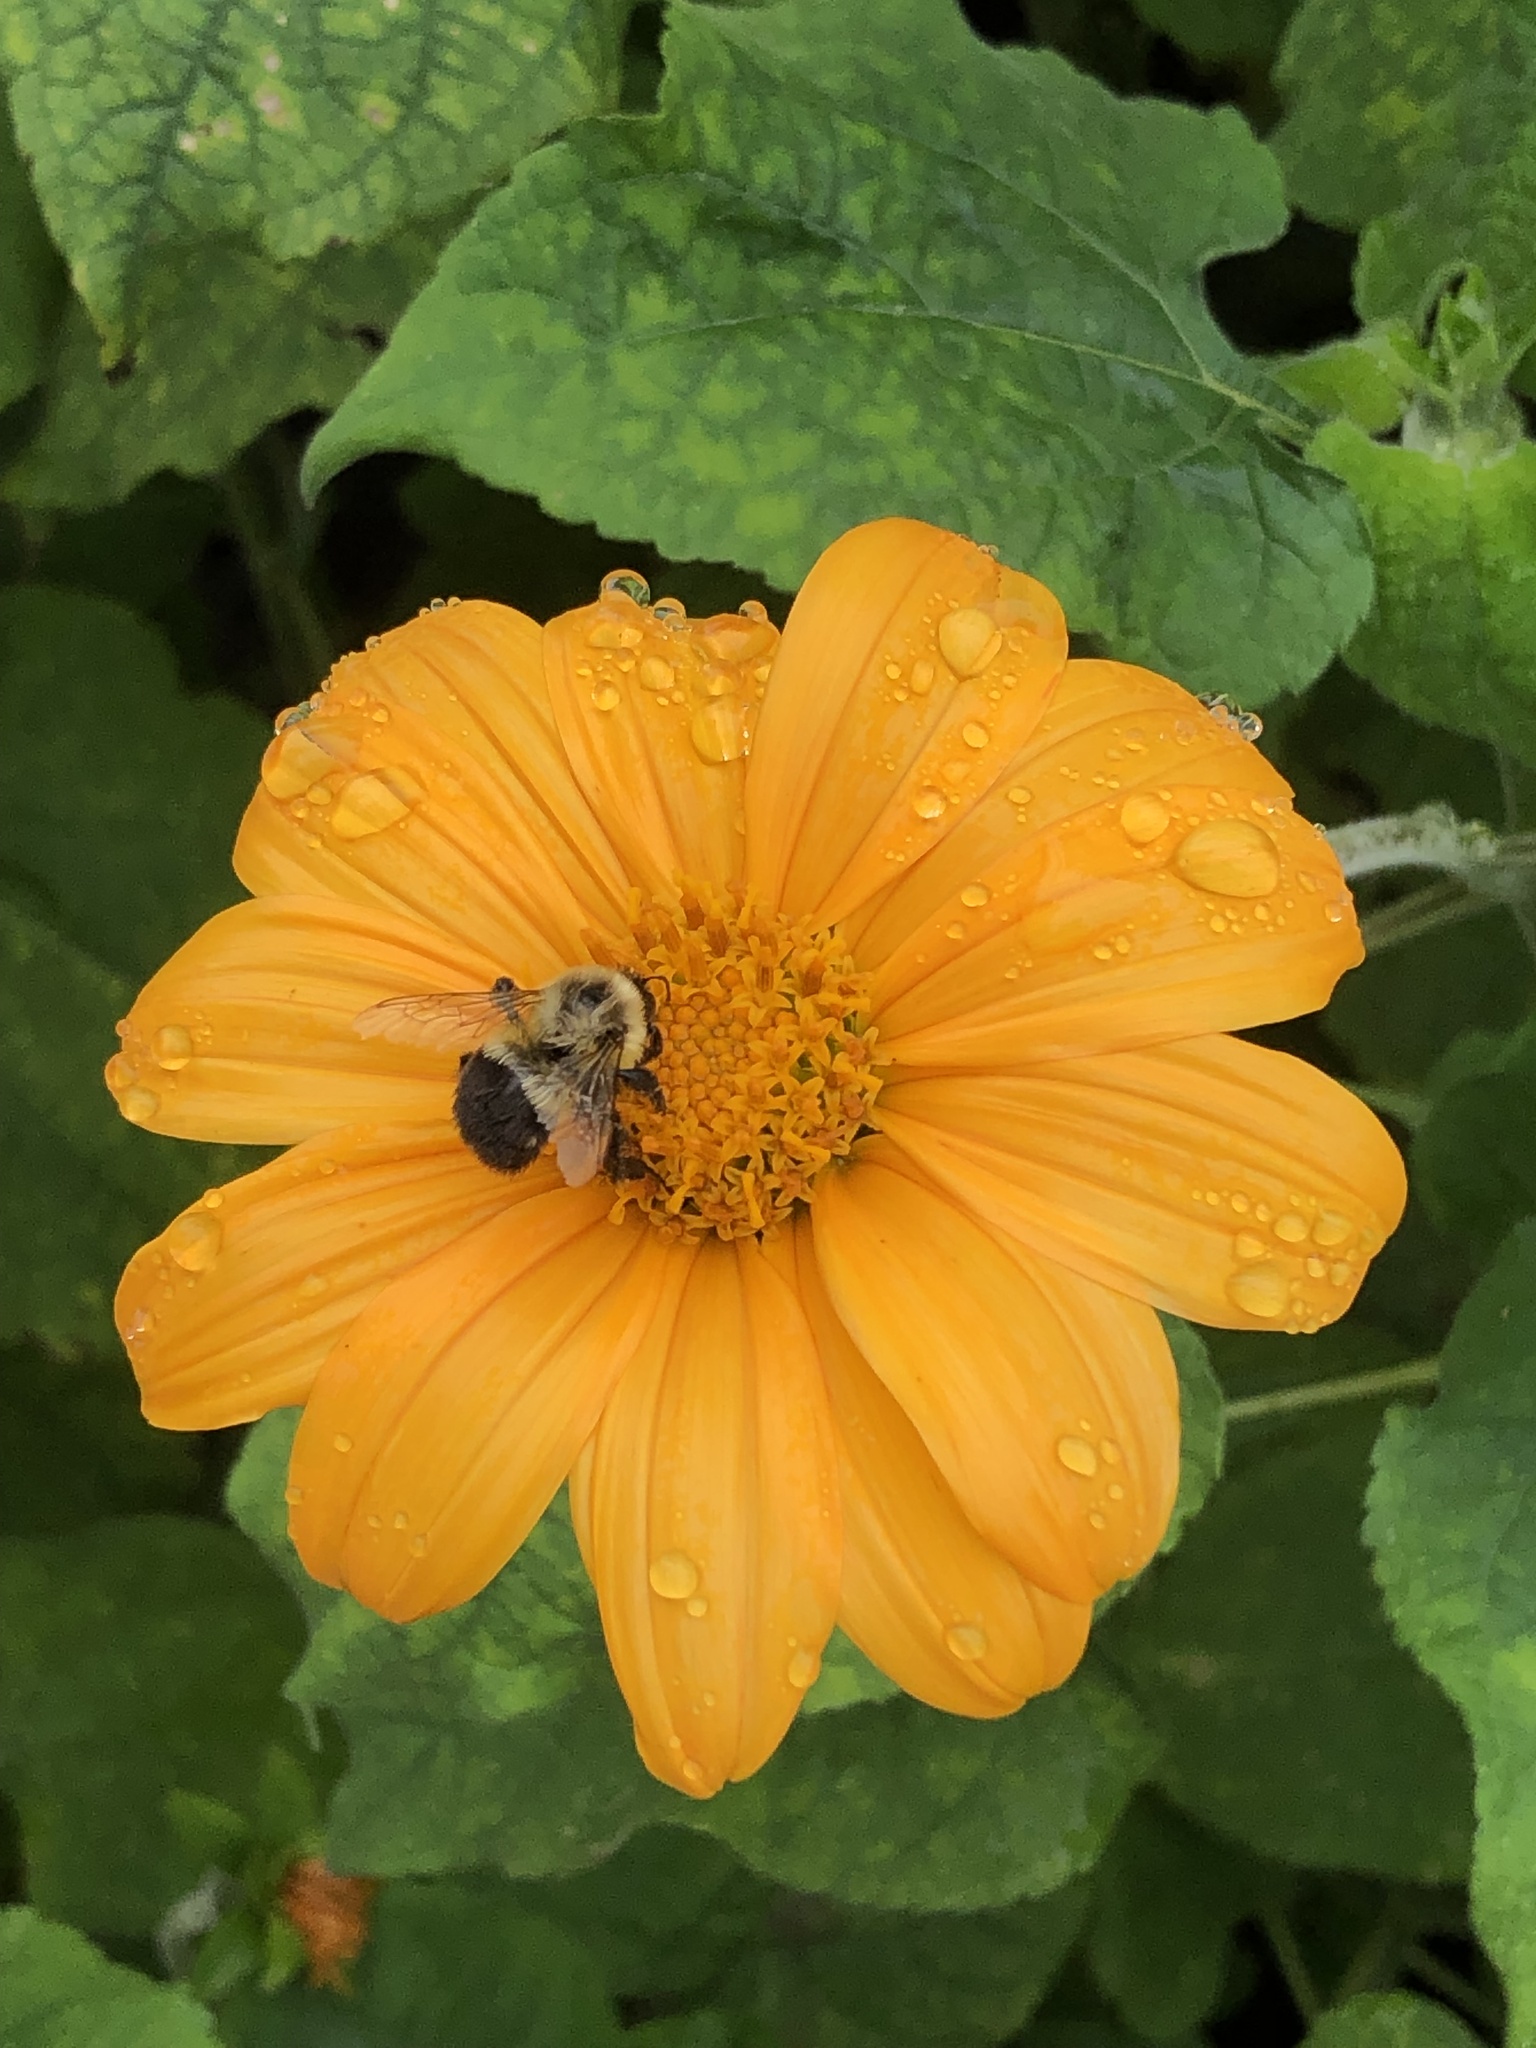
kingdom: Animalia
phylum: Arthropoda
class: Insecta
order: Hymenoptera
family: Apidae
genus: Bombus
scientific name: Bombus impatiens
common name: Common eastern bumble bee
